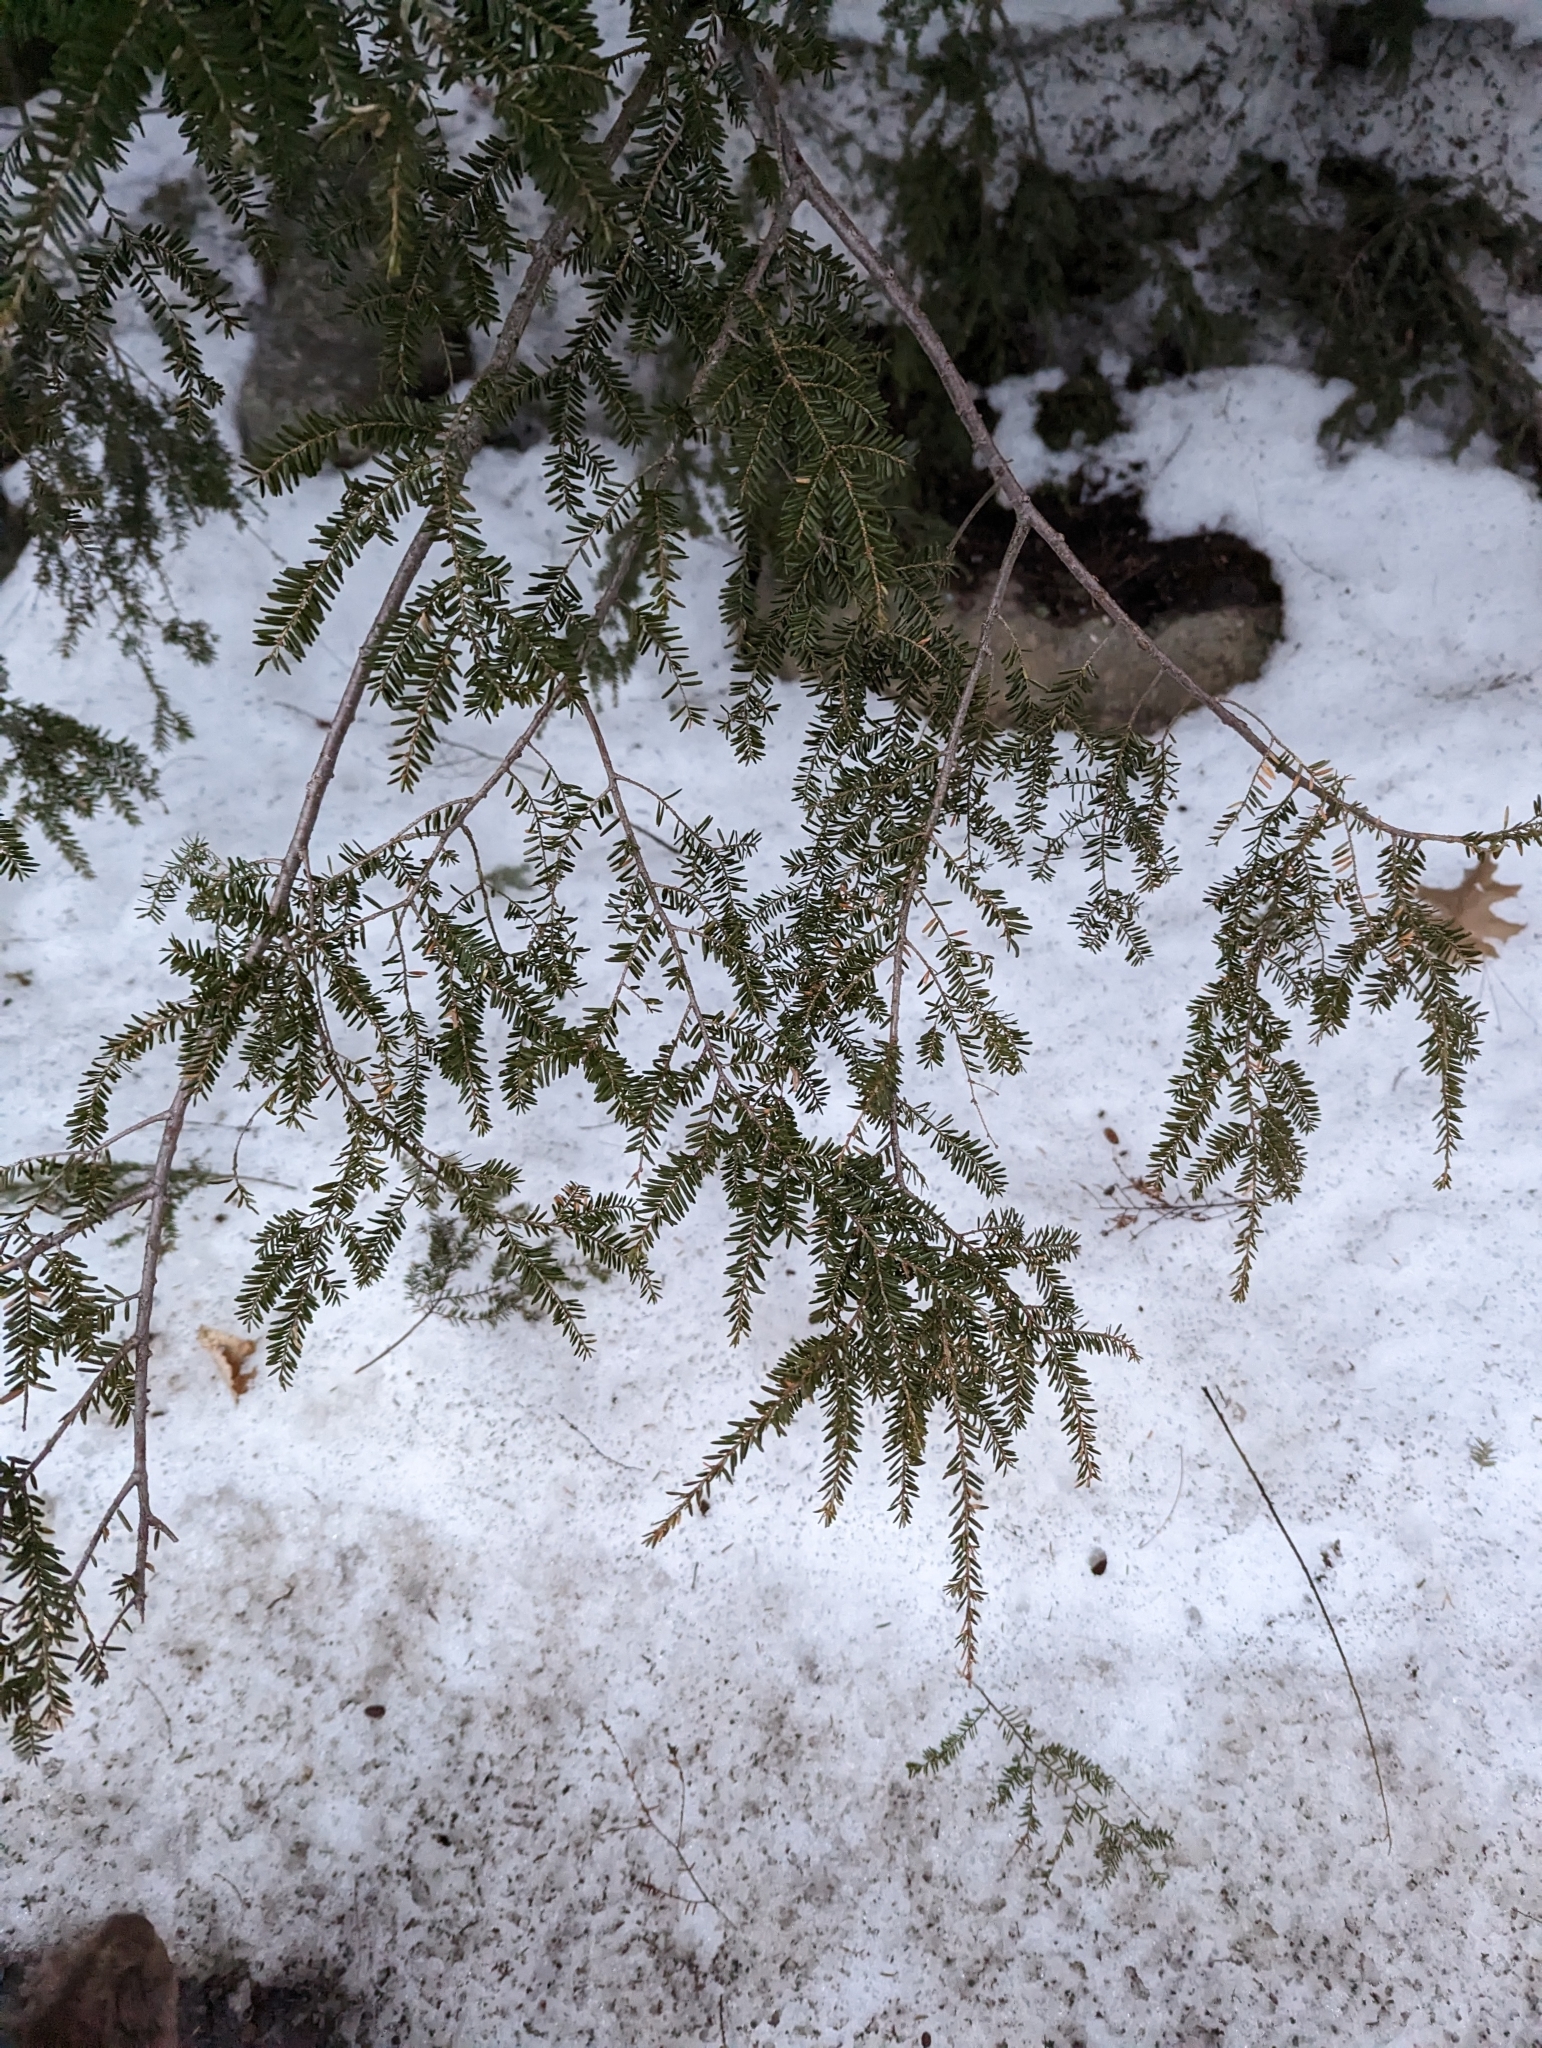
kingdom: Plantae
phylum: Tracheophyta
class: Pinopsida
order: Pinales
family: Pinaceae
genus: Tsuga
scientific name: Tsuga canadensis
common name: Eastern hemlock
